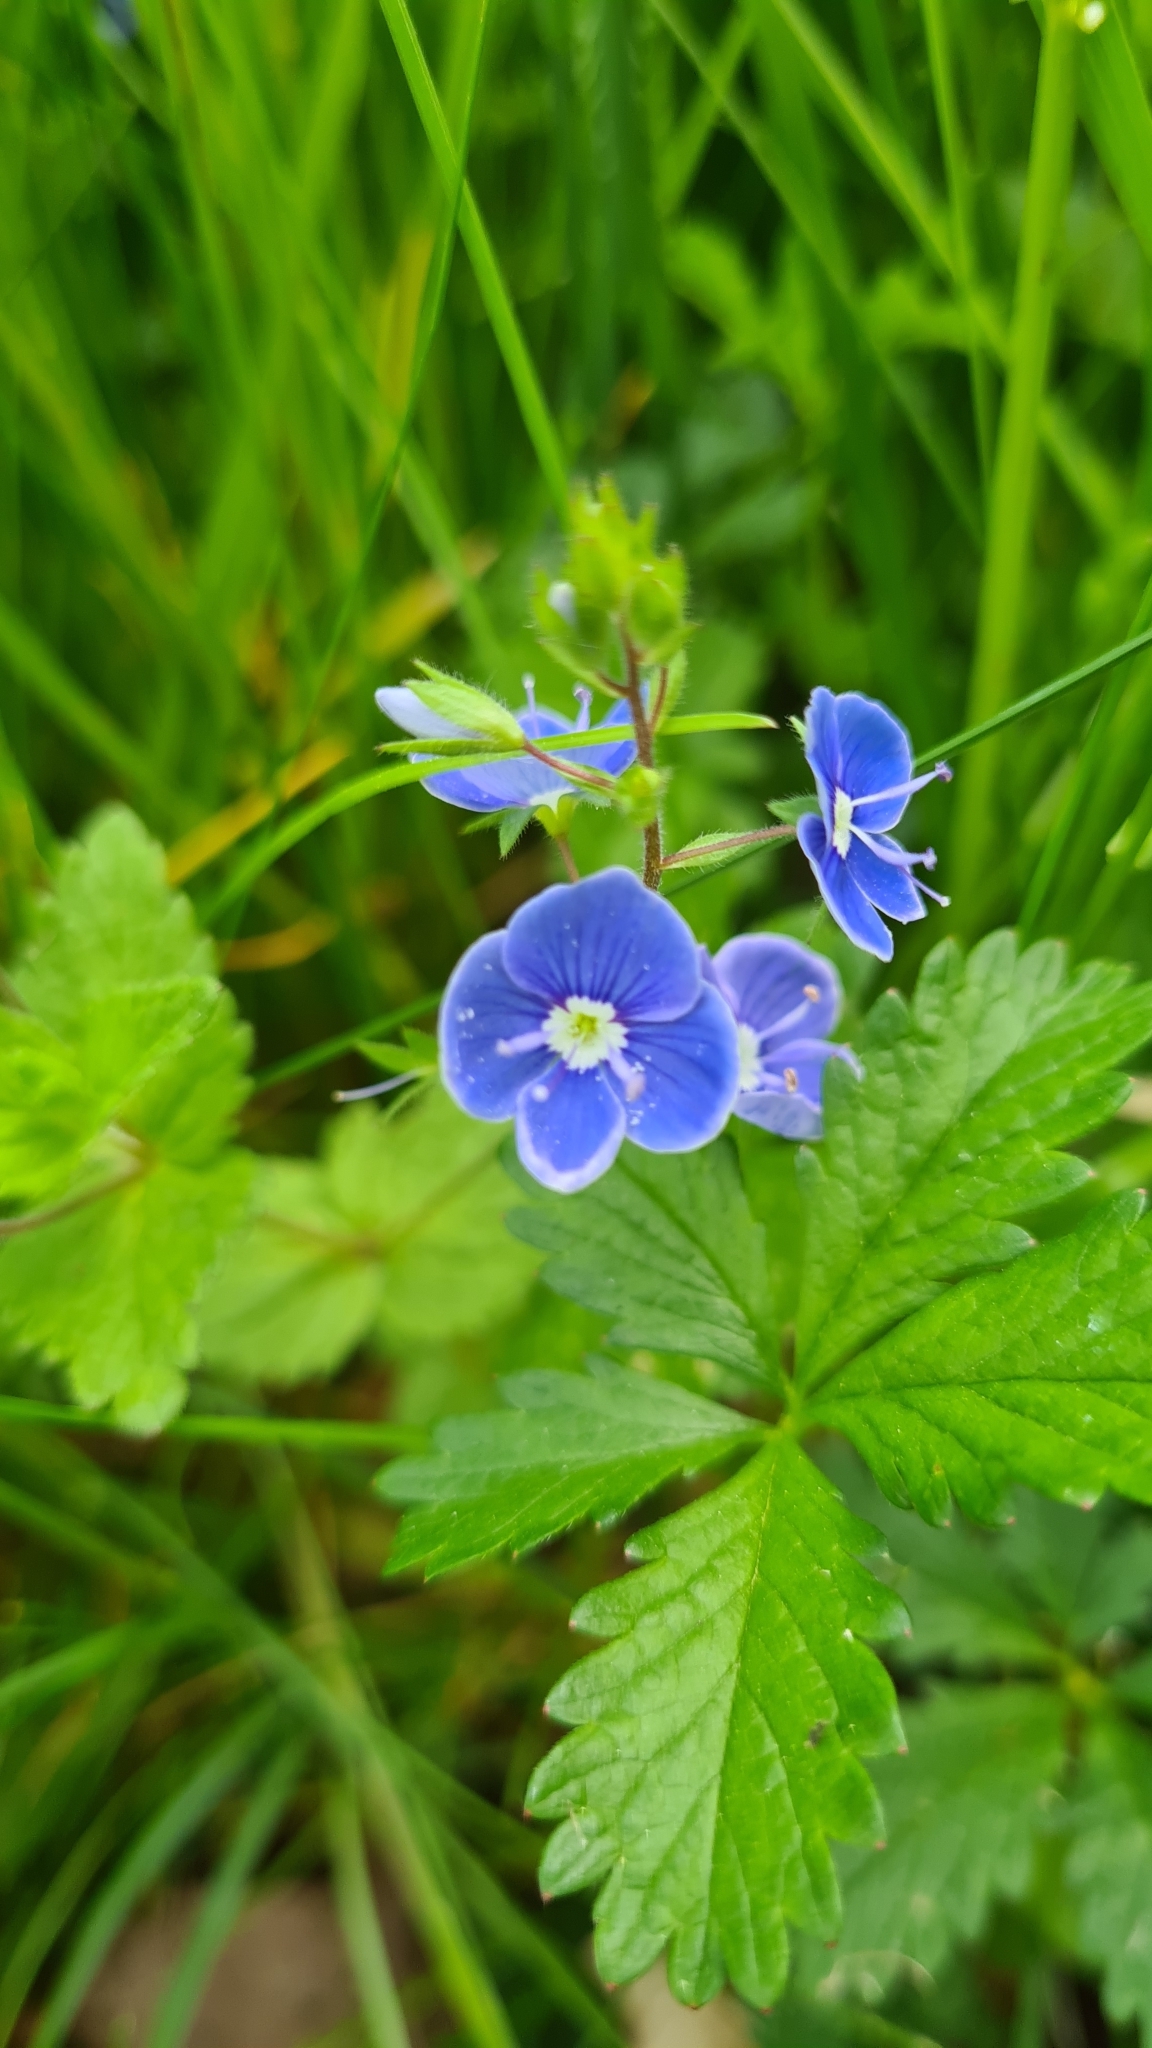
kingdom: Plantae
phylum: Tracheophyta
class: Magnoliopsida
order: Lamiales
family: Plantaginaceae
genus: Veronica
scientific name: Veronica chamaedrys
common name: Germander speedwell
